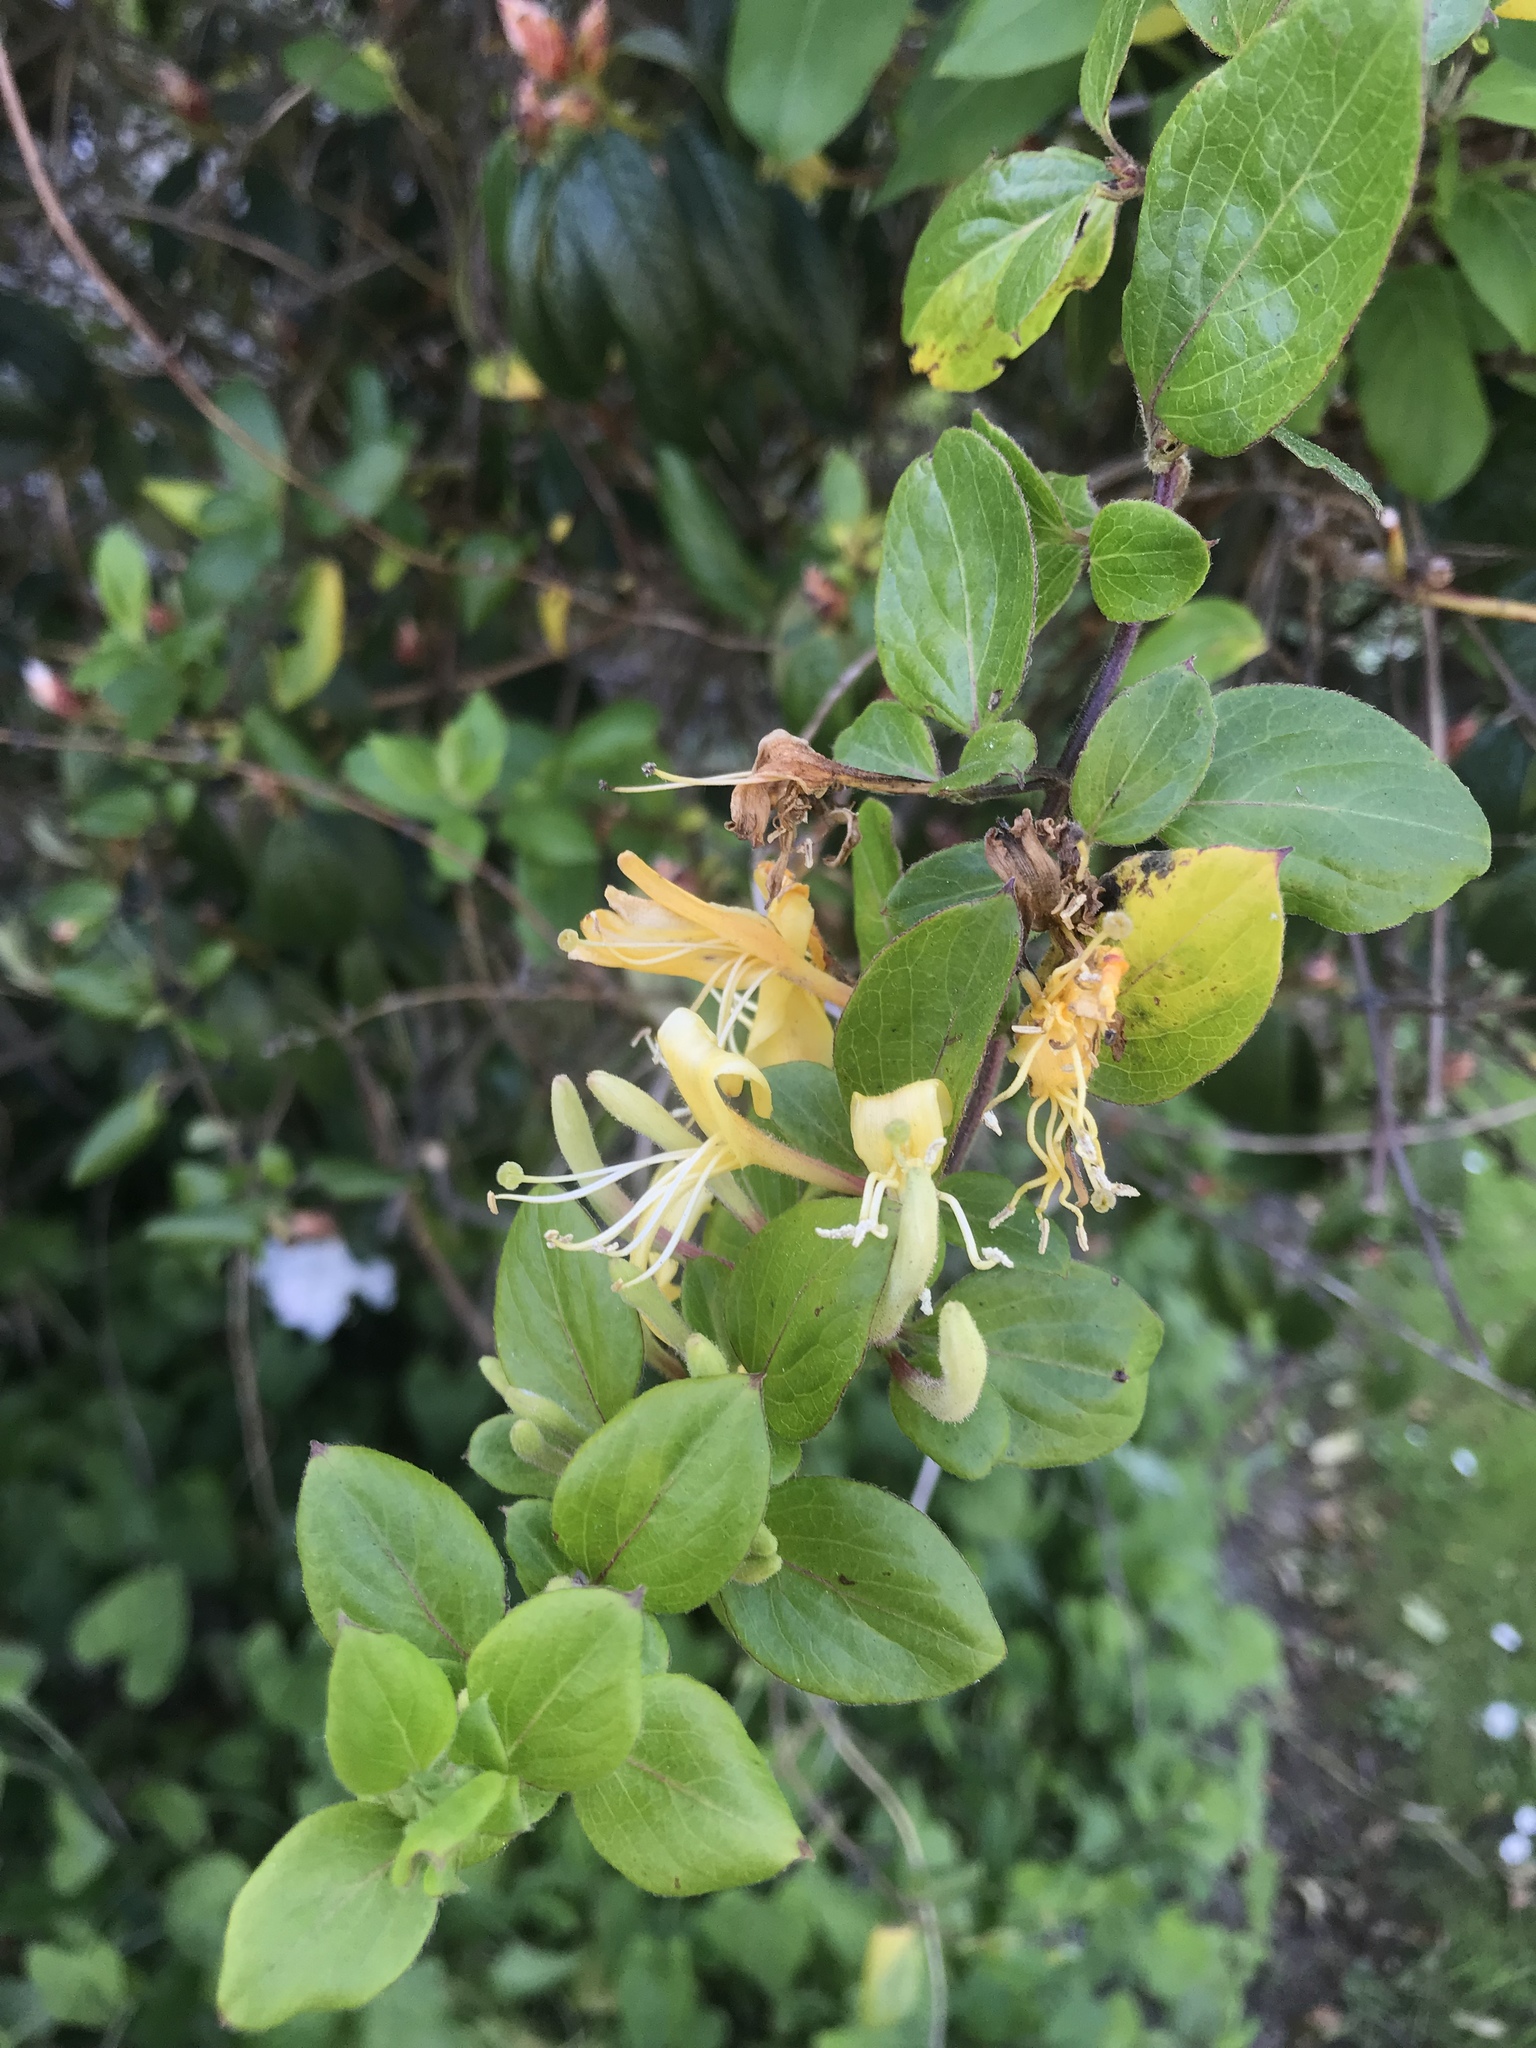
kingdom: Plantae
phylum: Tracheophyta
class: Magnoliopsida
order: Dipsacales
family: Caprifoliaceae
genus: Lonicera
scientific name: Lonicera japonica
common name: Japanese honeysuckle
